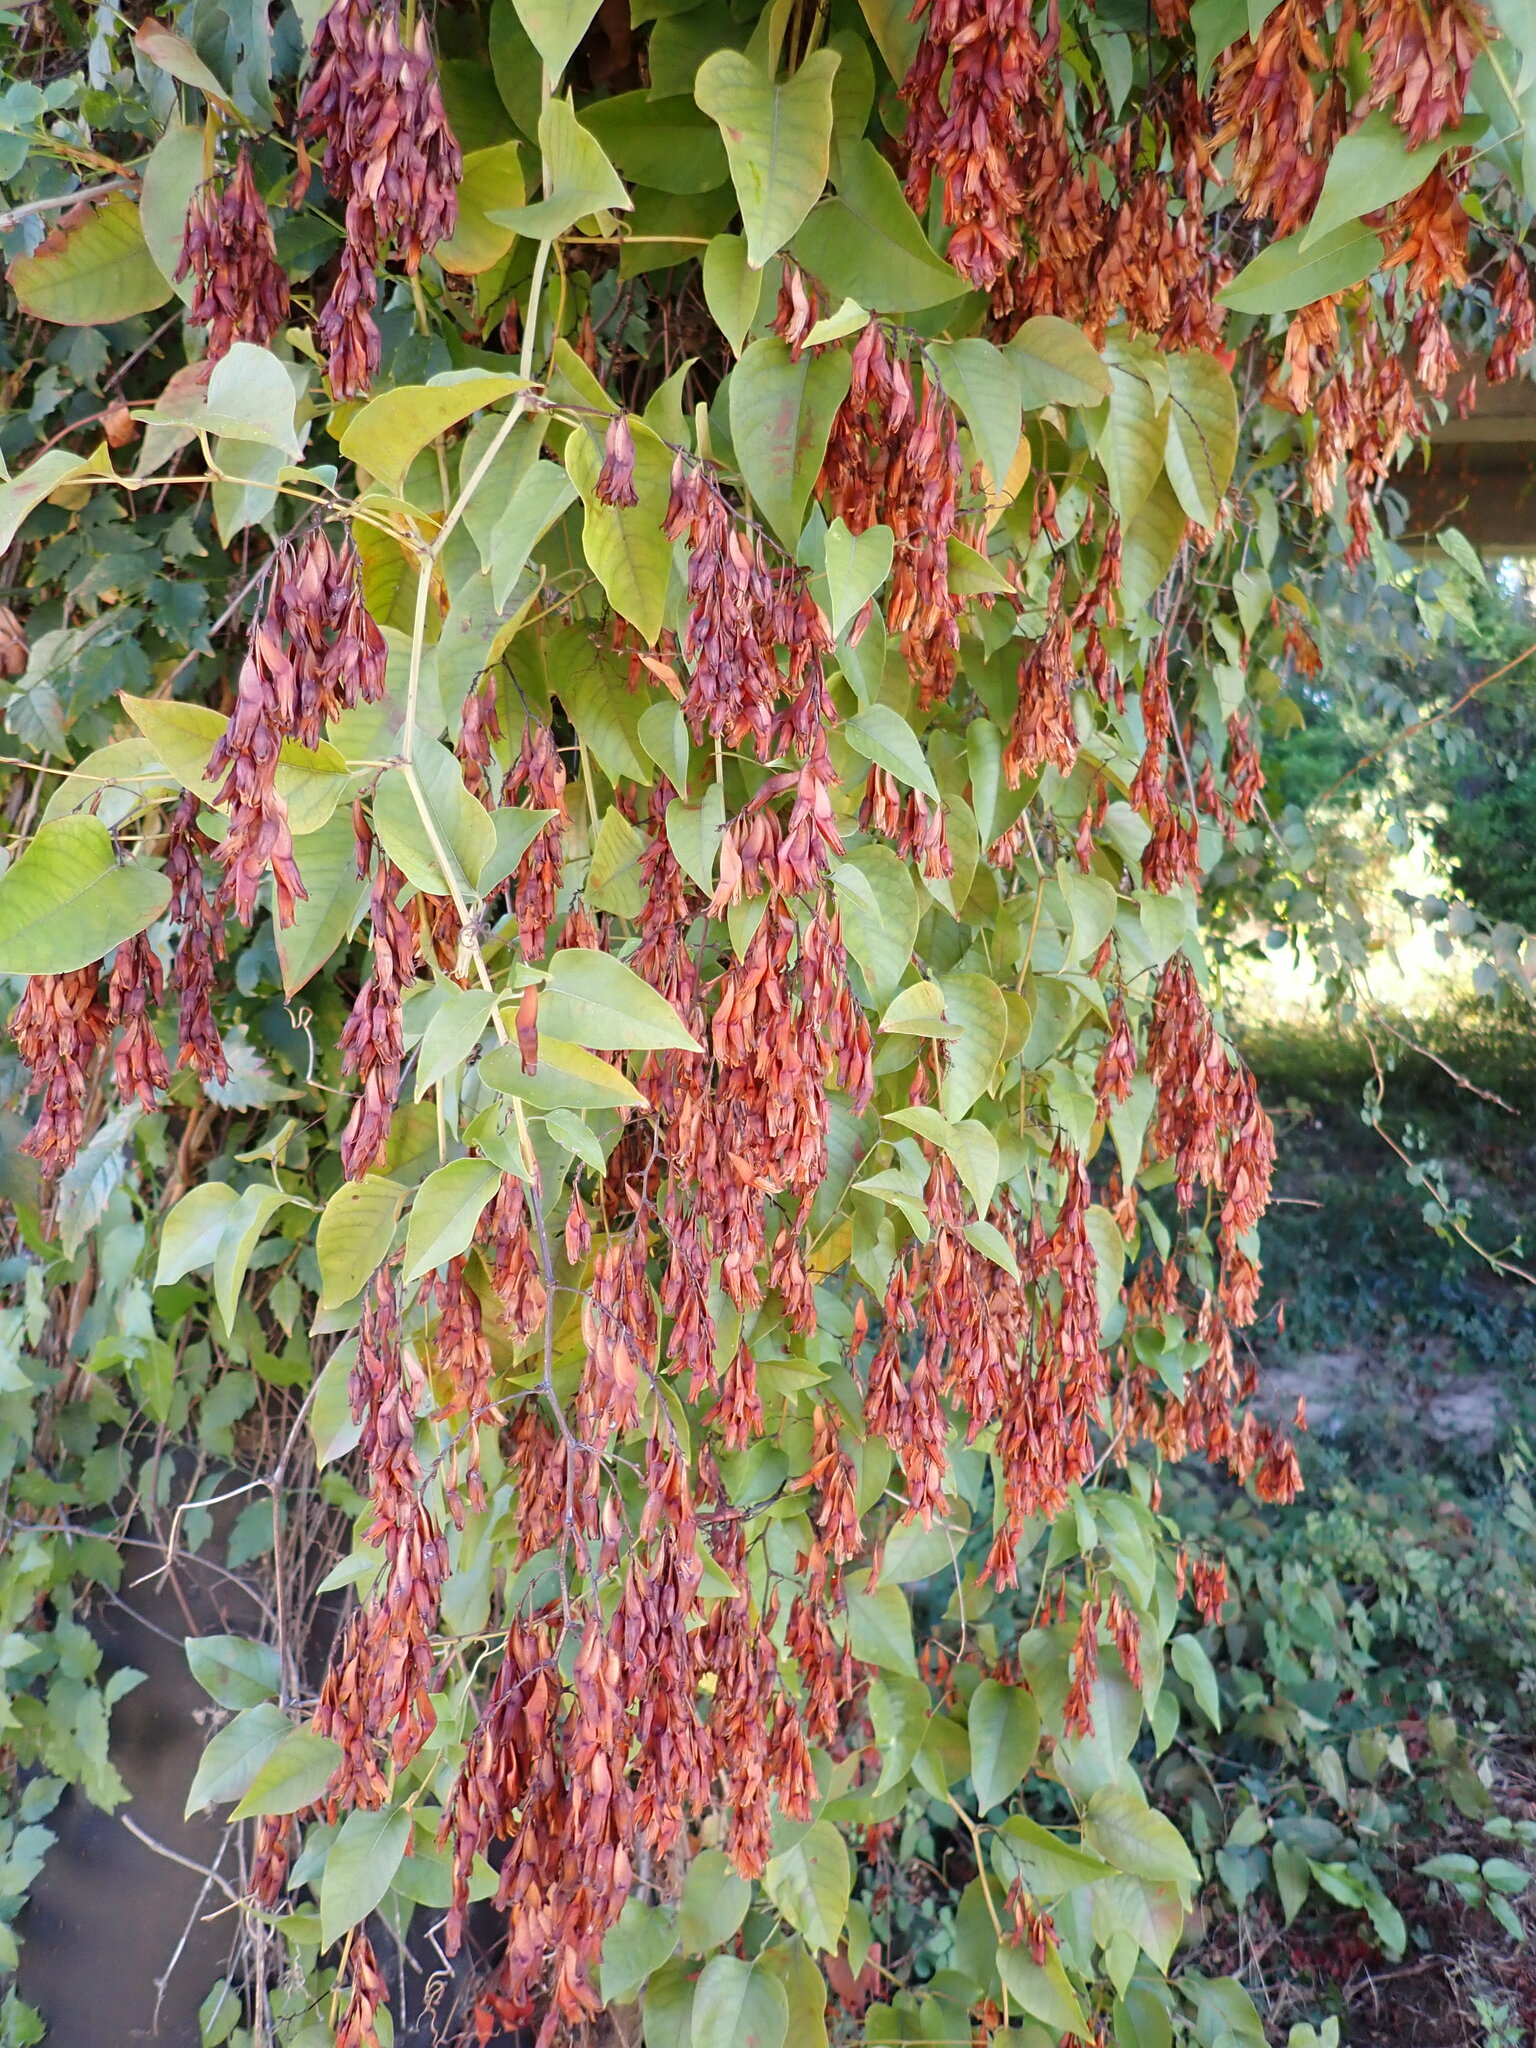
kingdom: Plantae
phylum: Tracheophyta
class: Magnoliopsida
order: Caryophyllales
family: Polygonaceae
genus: Brunnichia
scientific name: Brunnichia ovata
